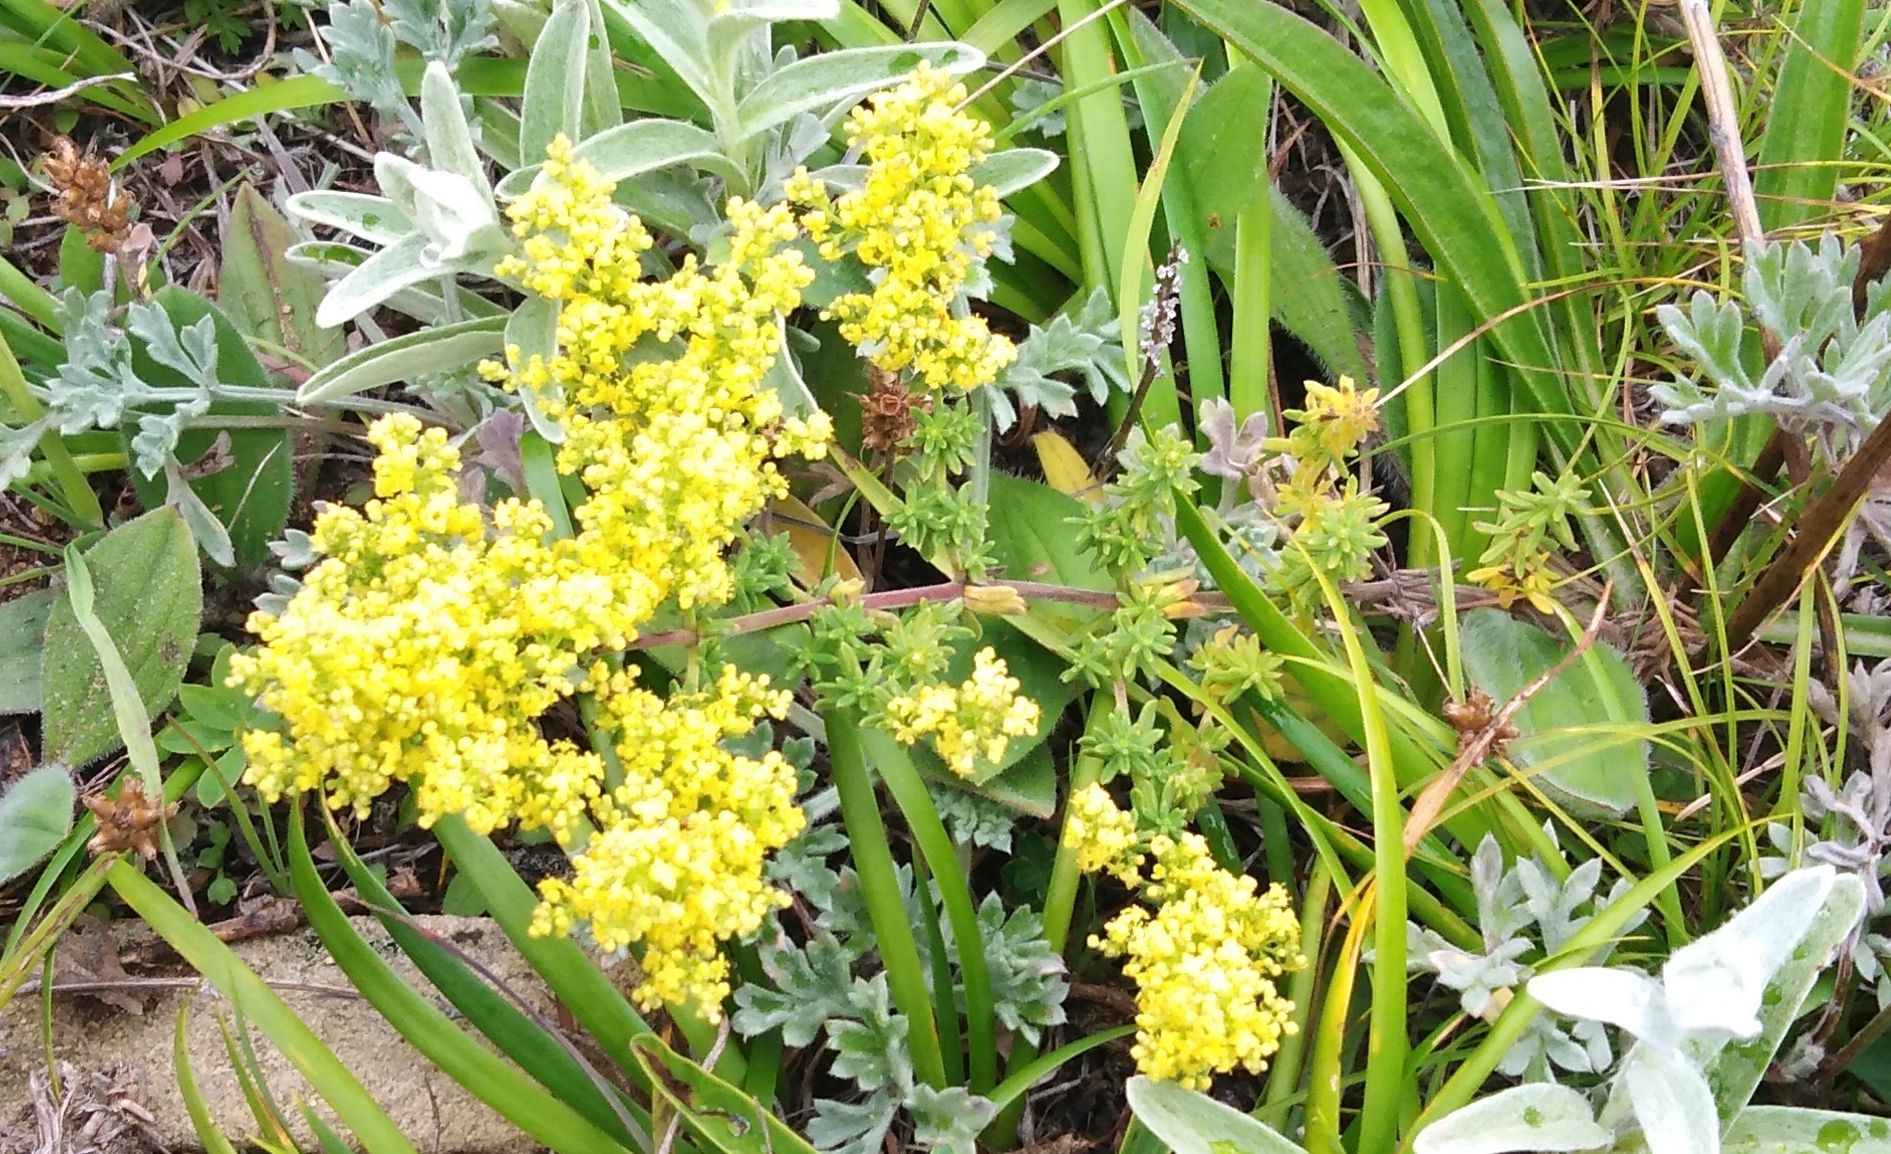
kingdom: Plantae
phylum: Tracheophyta
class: Magnoliopsida
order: Gentianales
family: Rubiaceae
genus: Galium
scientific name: Galium verum
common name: Lady's bedstraw
